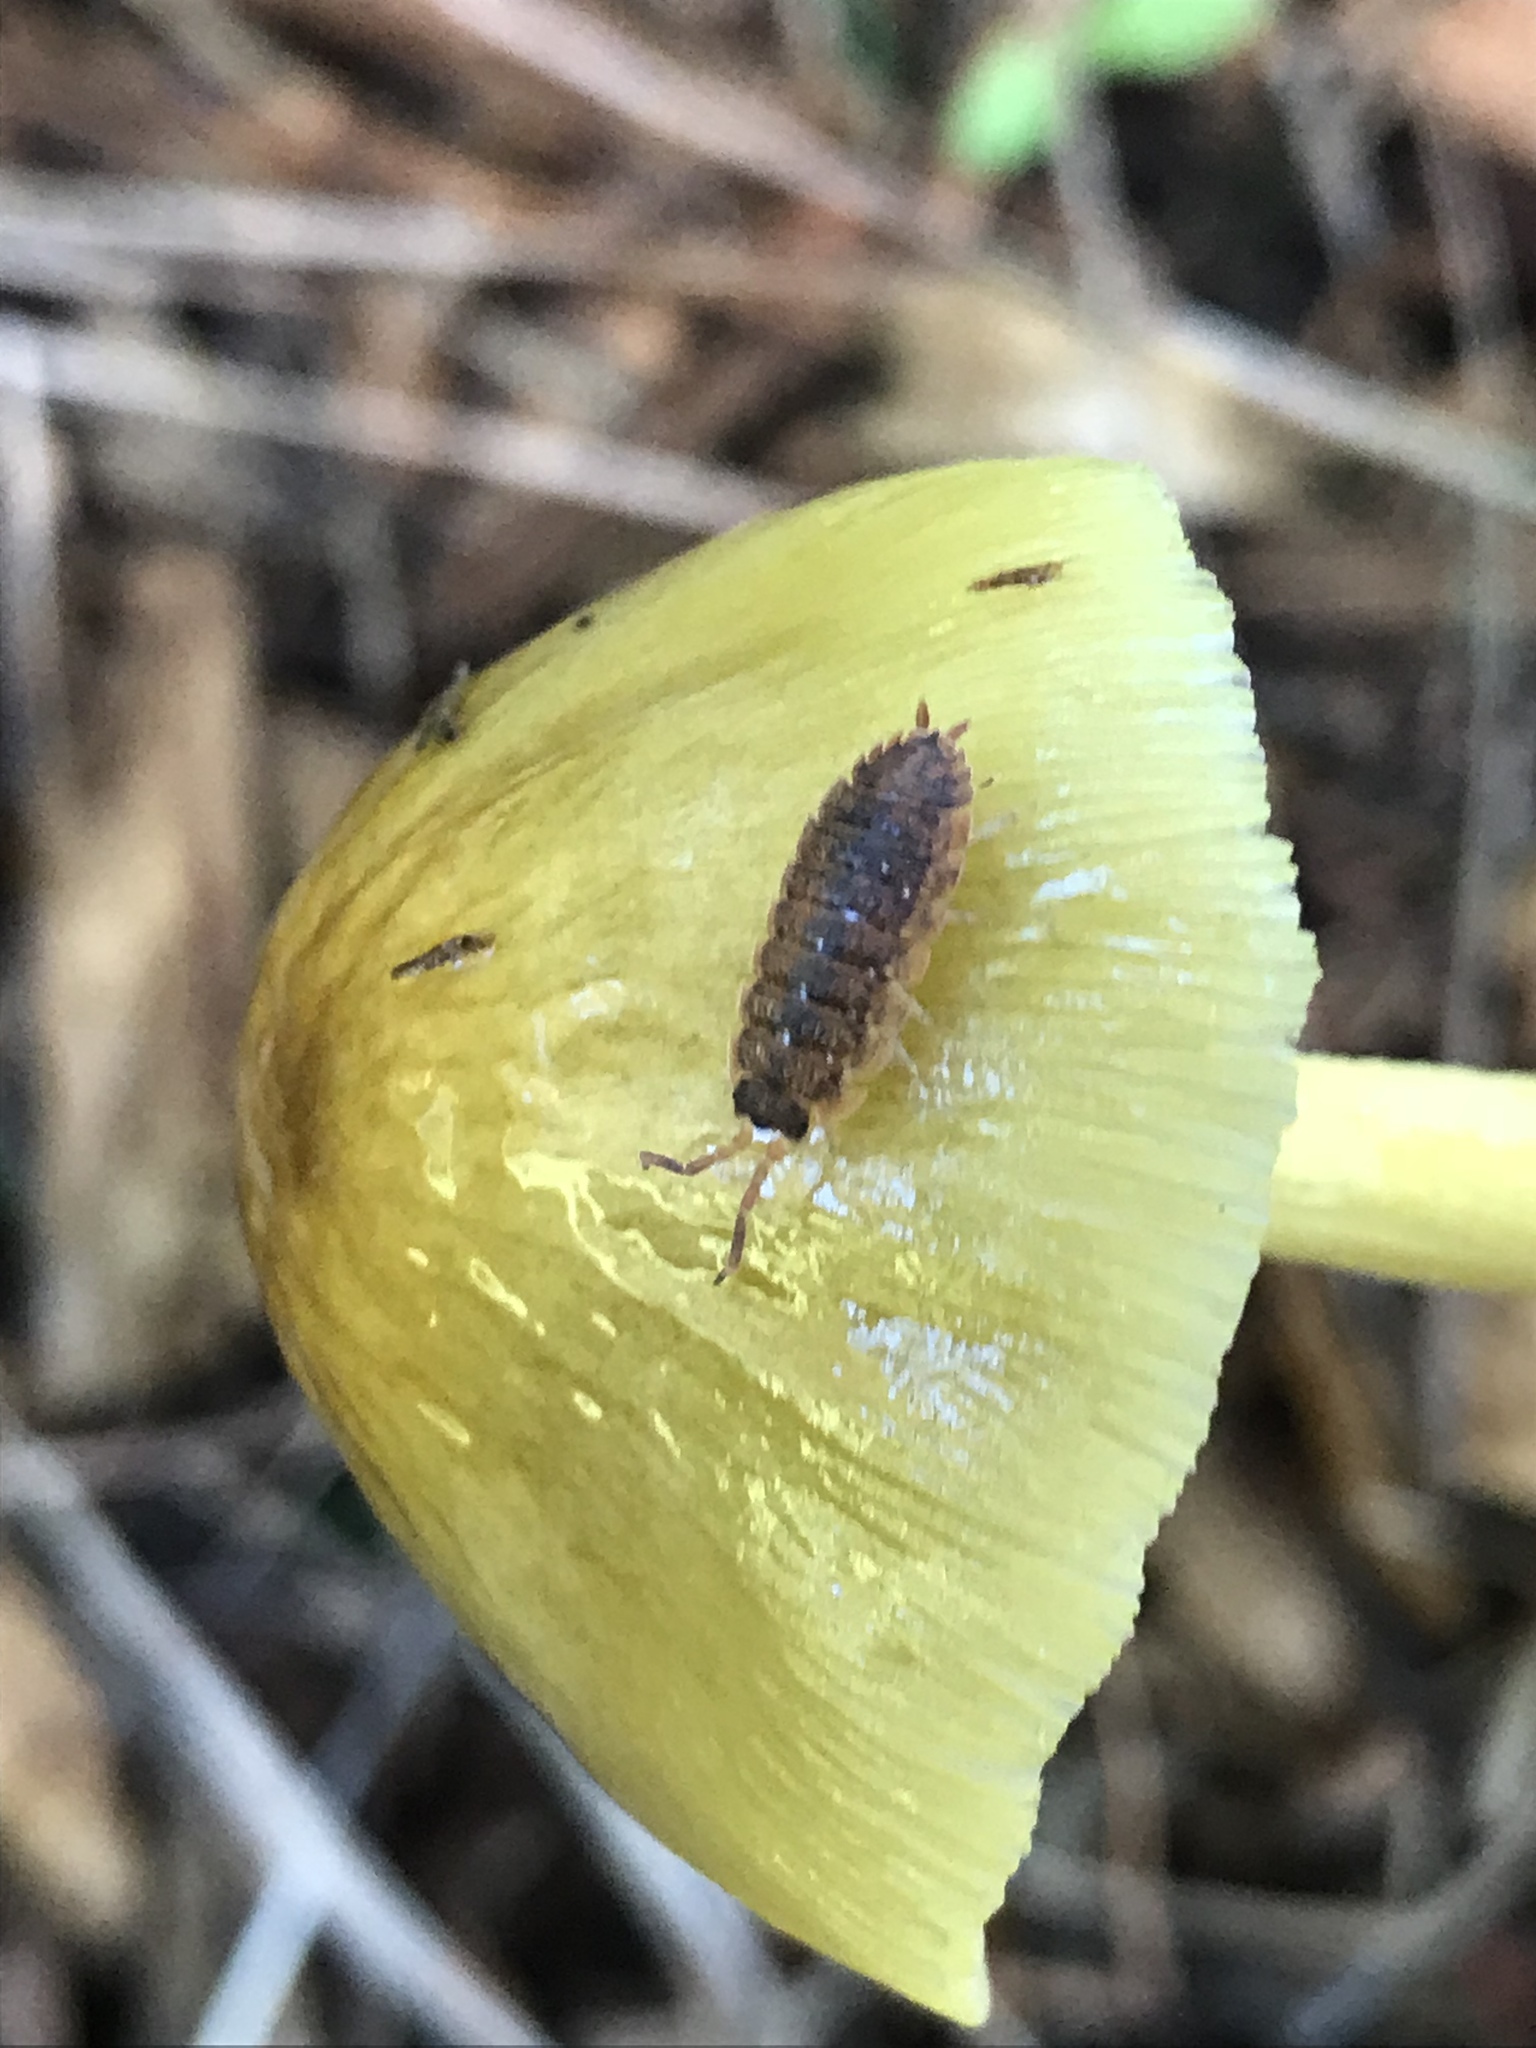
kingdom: Animalia
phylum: Arthropoda
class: Malacostraca
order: Isopoda
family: Porcellionidae
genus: Porcellio
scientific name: Porcellio scaber
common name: Common rough woodlouse
